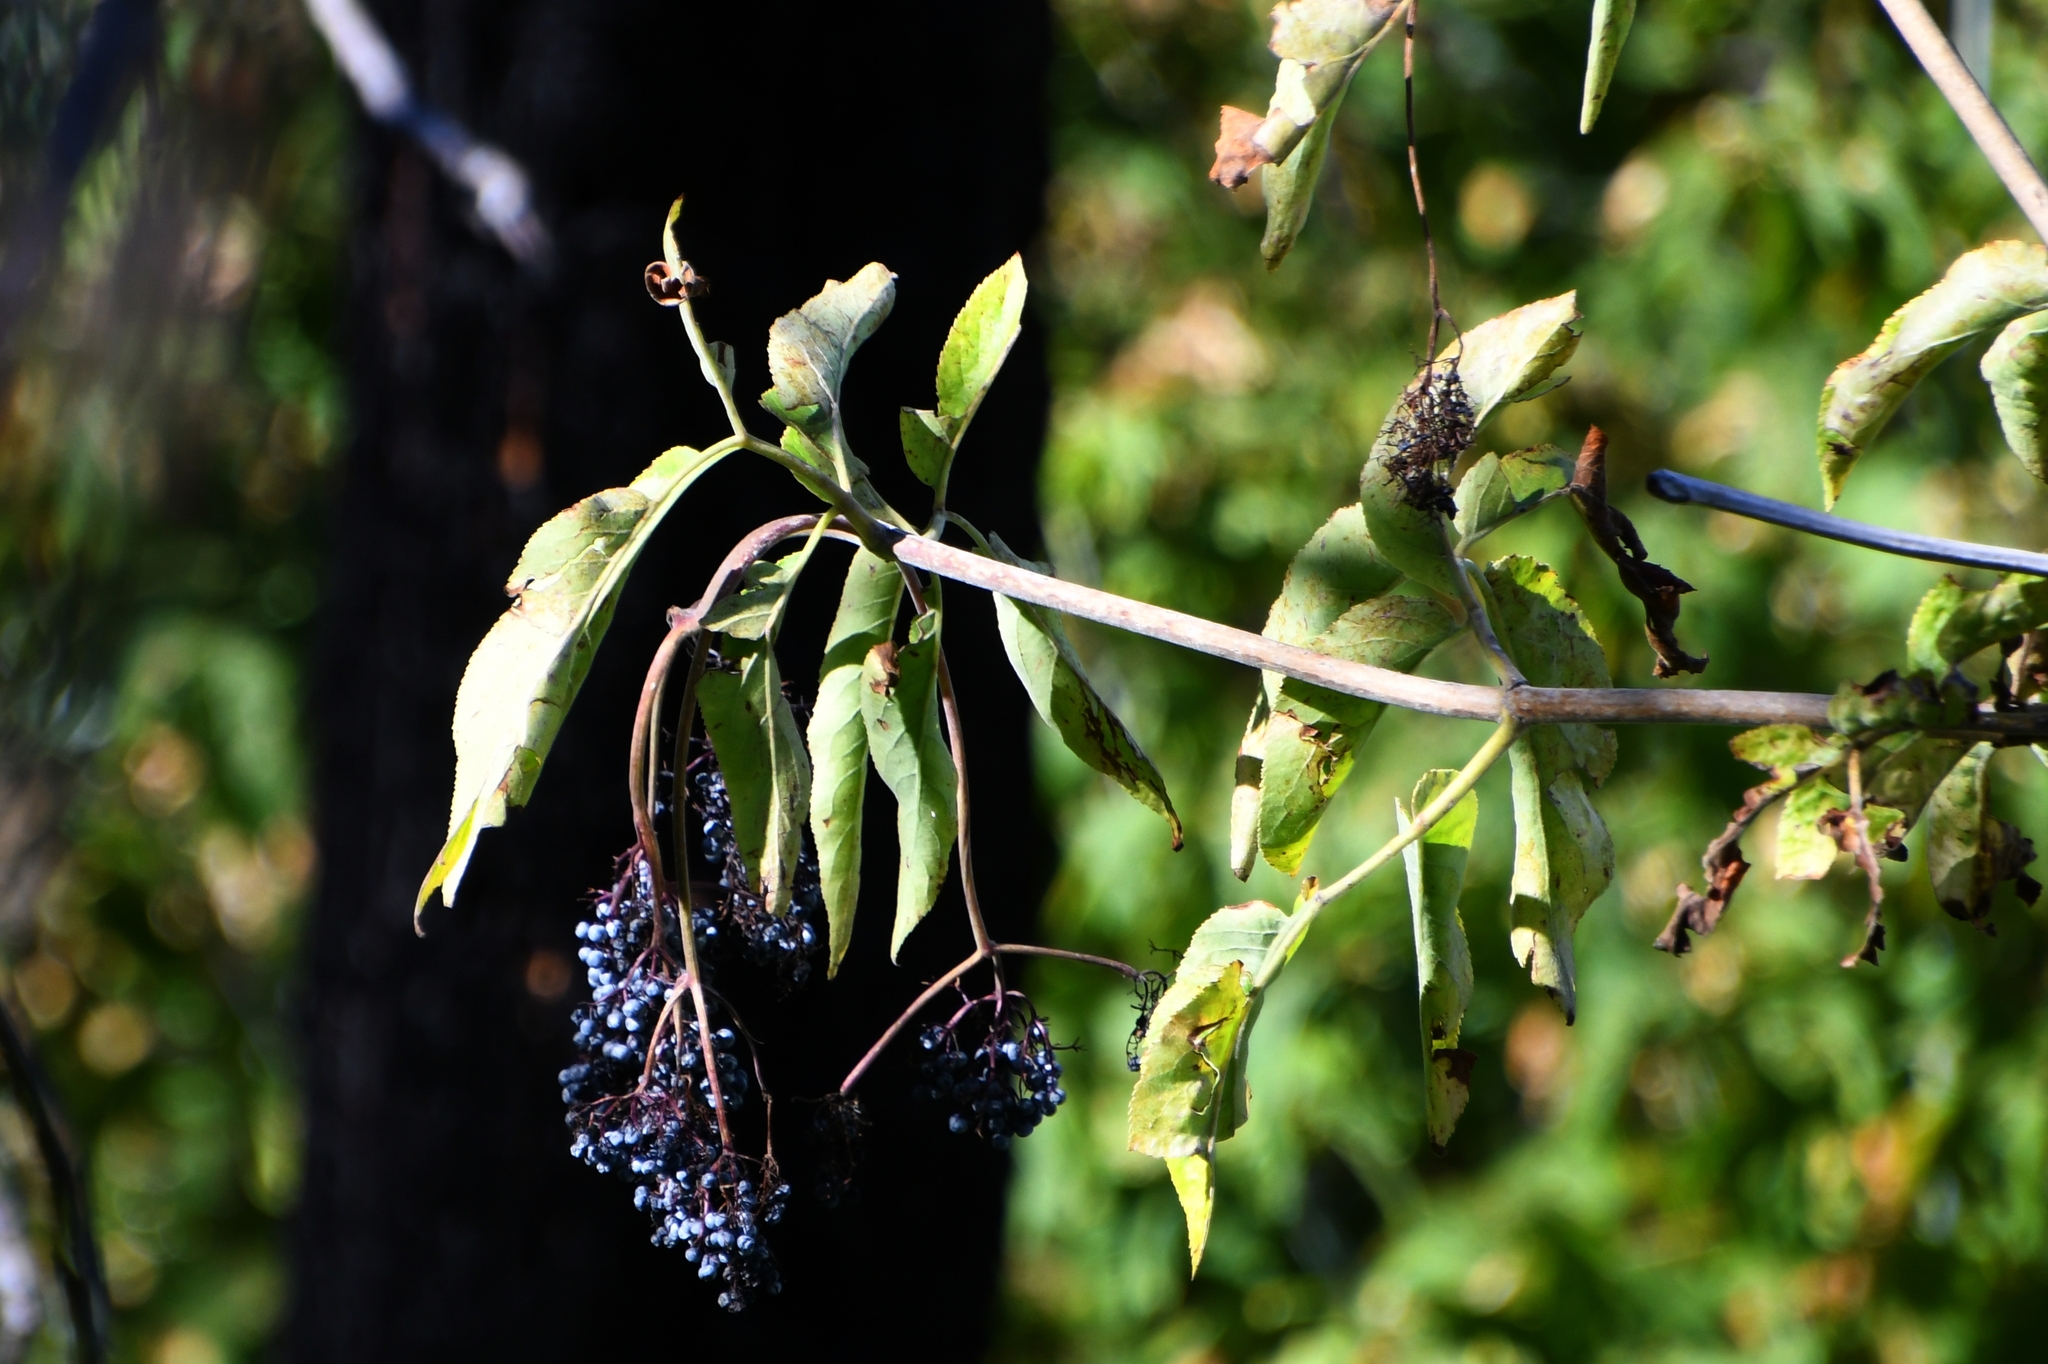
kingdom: Plantae
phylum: Tracheophyta
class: Magnoliopsida
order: Dipsacales
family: Viburnaceae
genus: Sambucus
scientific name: Sambucus cerulea
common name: Blue elder
